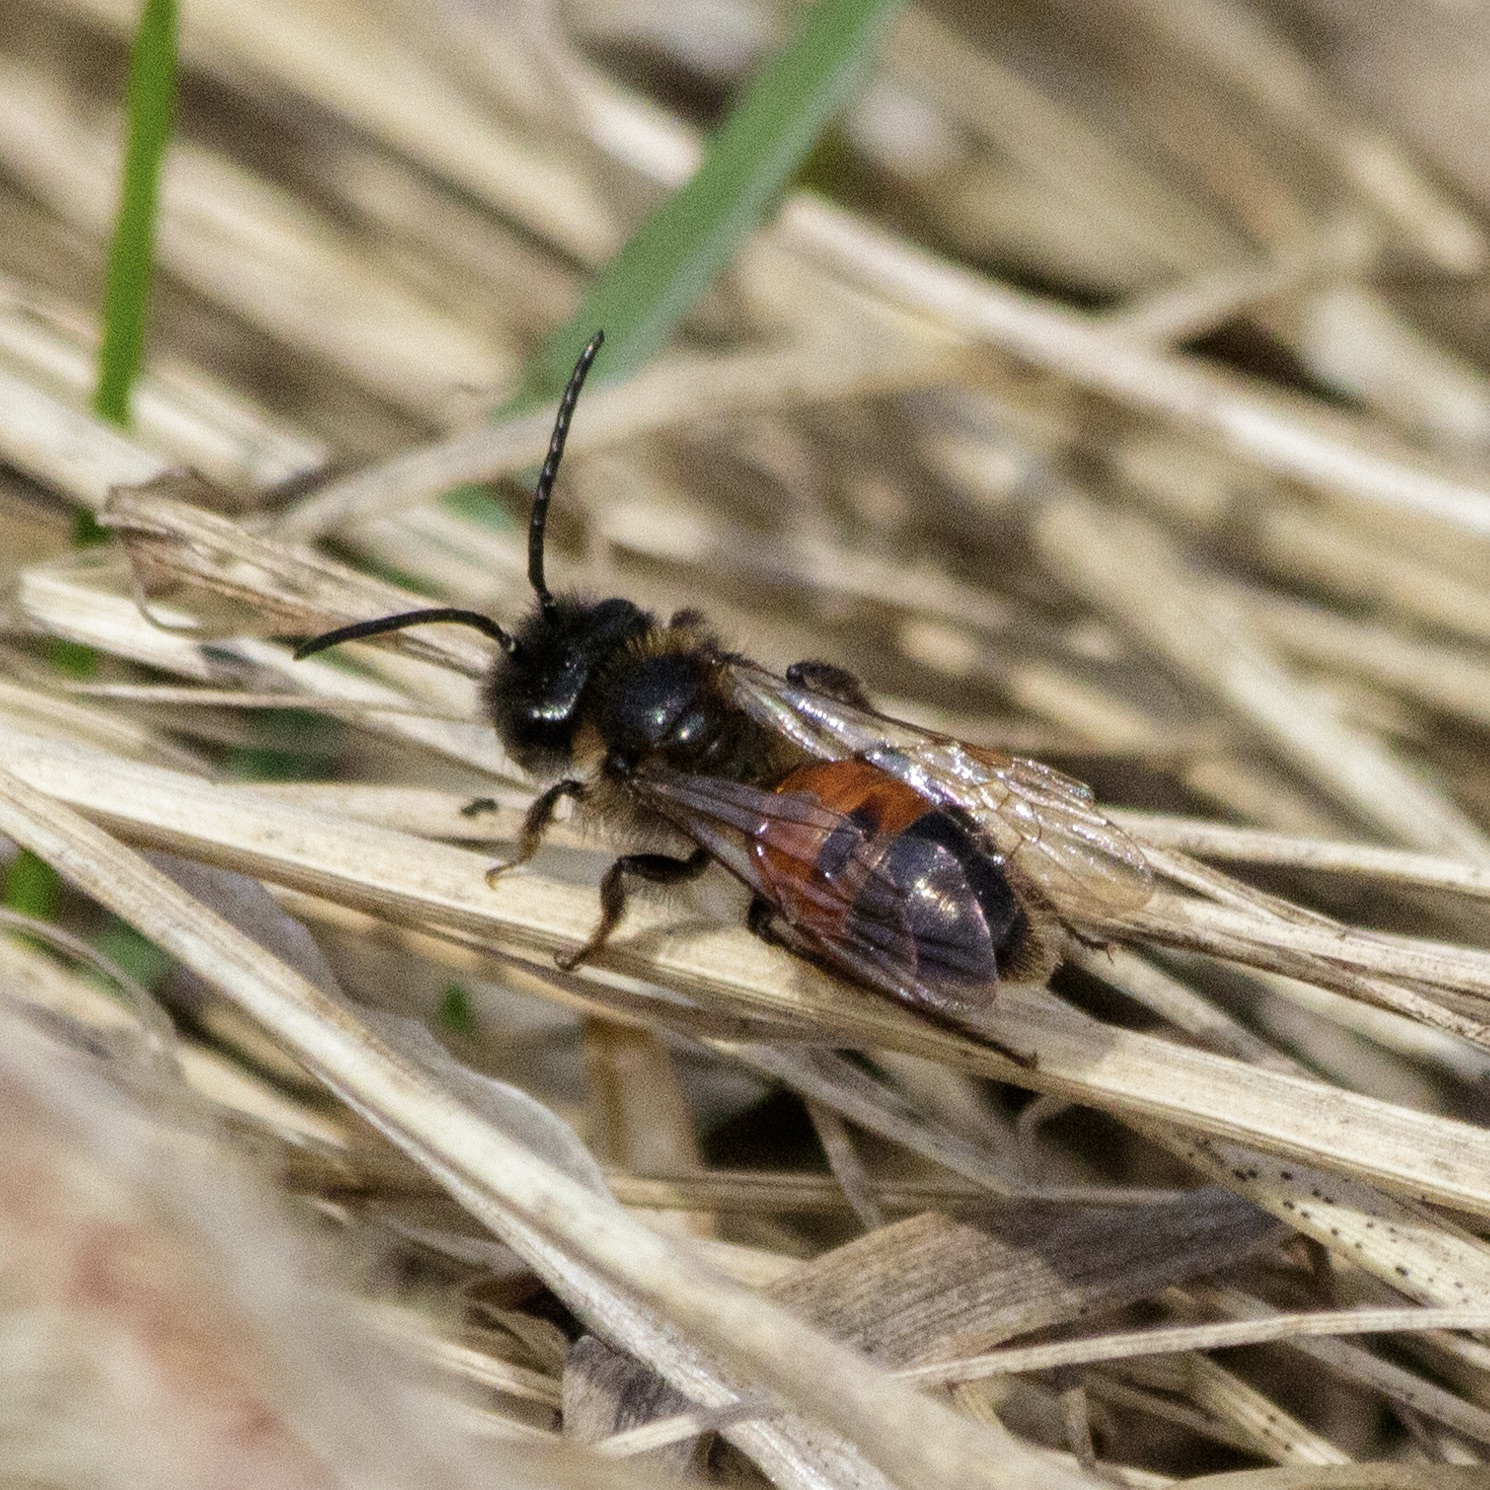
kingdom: Animalia
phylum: Arthropoda
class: Insecta
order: Hymenoptera
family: Andrenidae
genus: Andrena
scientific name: Andrena rosae
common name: Perkin's mining bee
